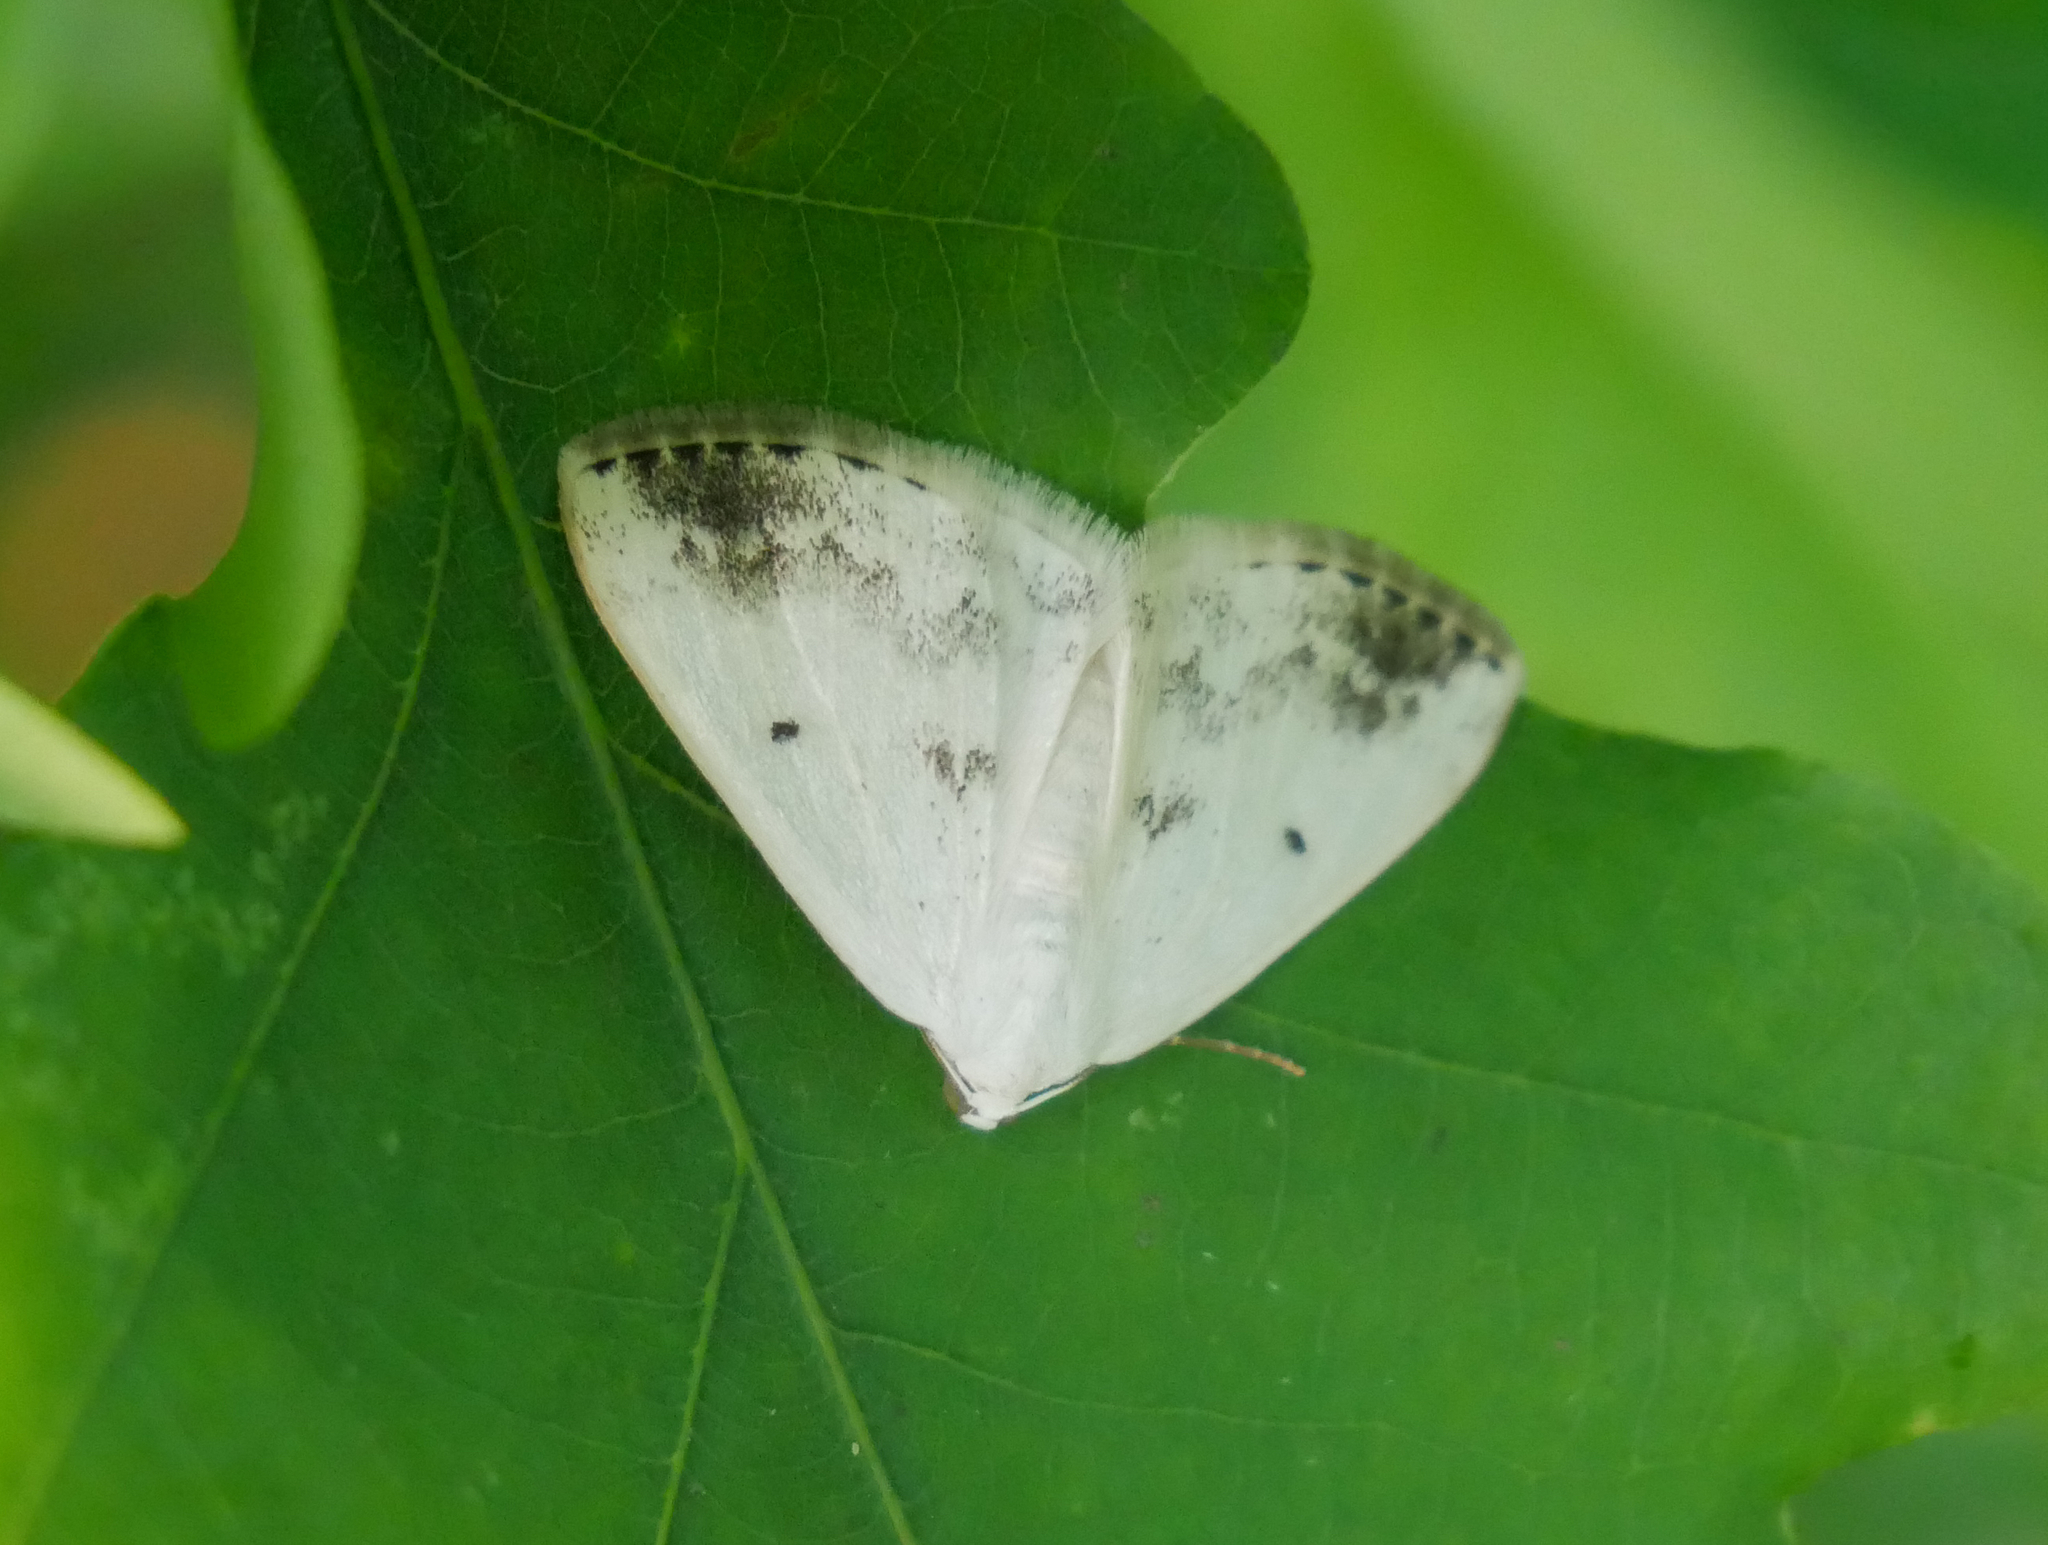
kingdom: Animalia
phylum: Arthropoda
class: Insecta
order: Lepidoptera
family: Geometridae
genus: Lomographa
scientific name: Lomographa temerata
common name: Clouded silver
